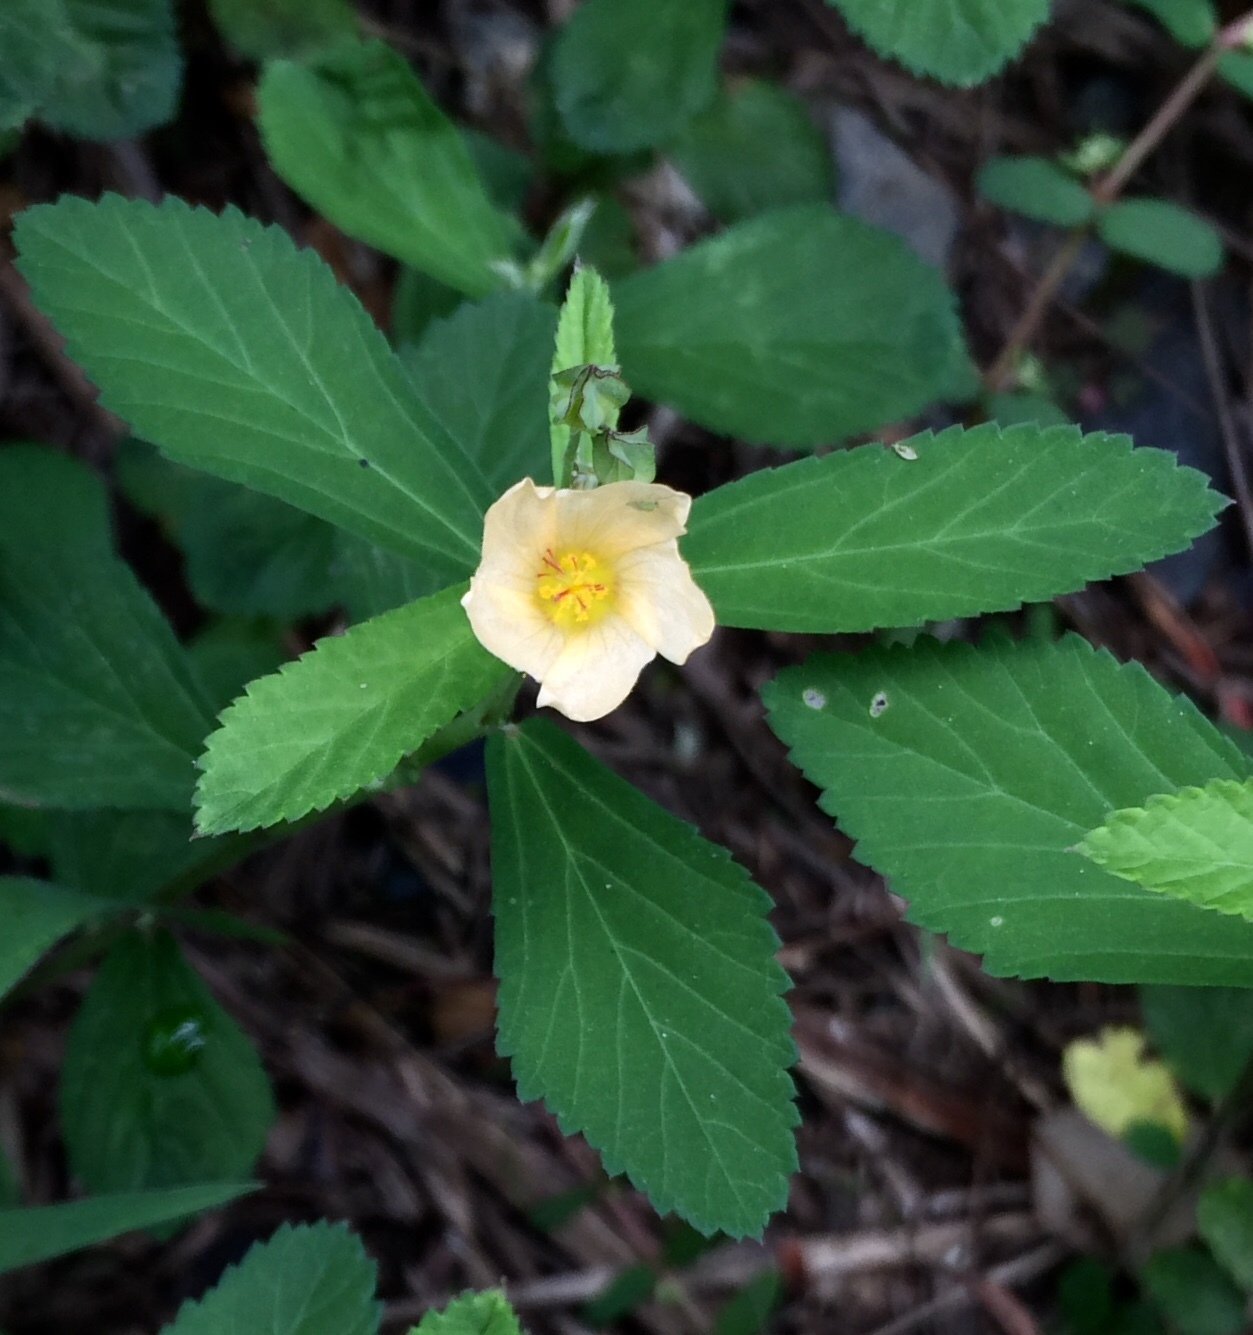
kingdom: Plantae
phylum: Tracheophyta
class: Magnoliopsida
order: Malvales
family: Malvaceae
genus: Sida
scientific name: Sida rhombifolia
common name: Queensland-hemp
